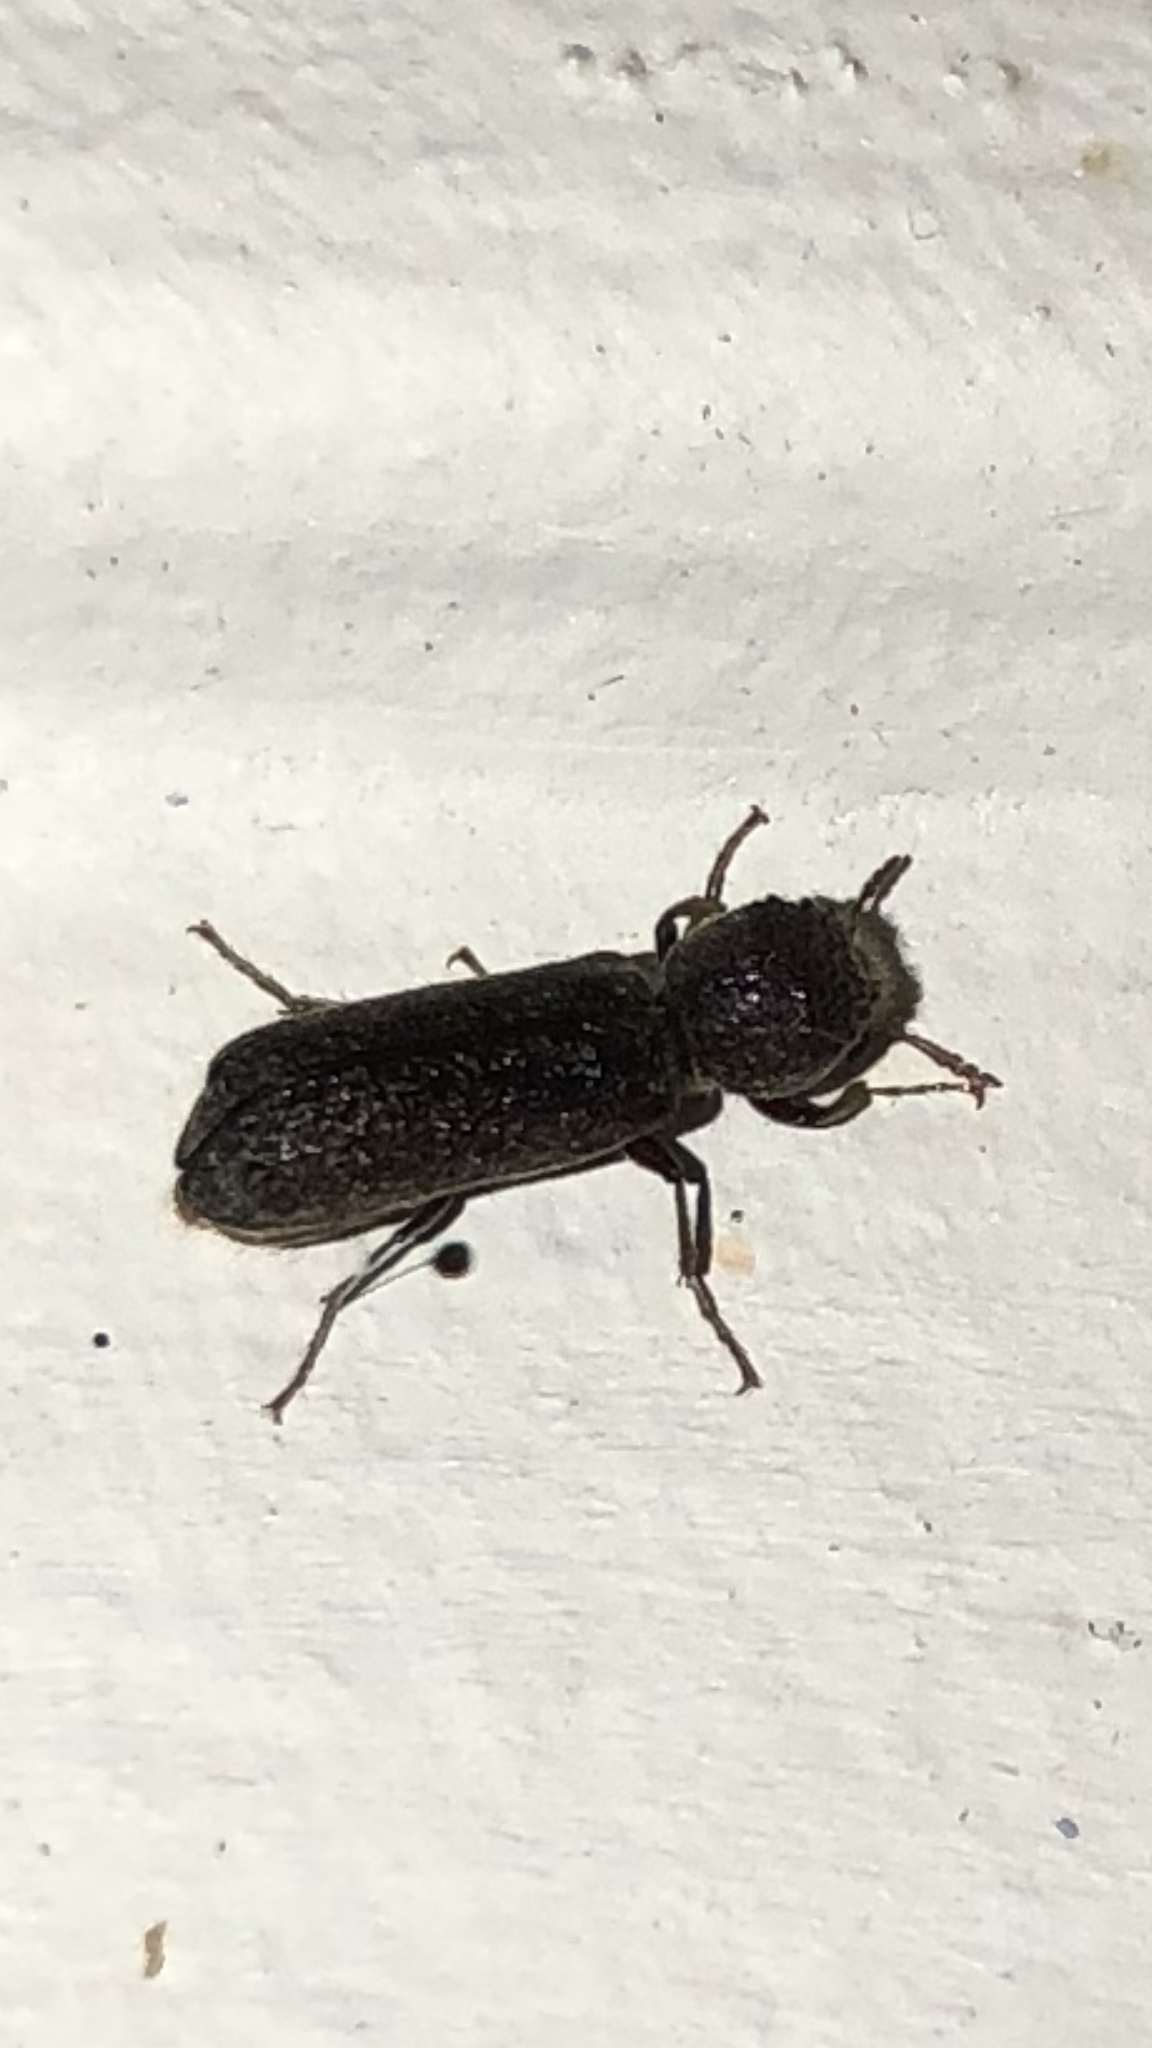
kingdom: Animalia
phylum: Arthropoda
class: Insecta
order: Coleoptera
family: Bostrichidae
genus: Amphicerus
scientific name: Amphicerus bicaudatus
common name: Apple twig borer
